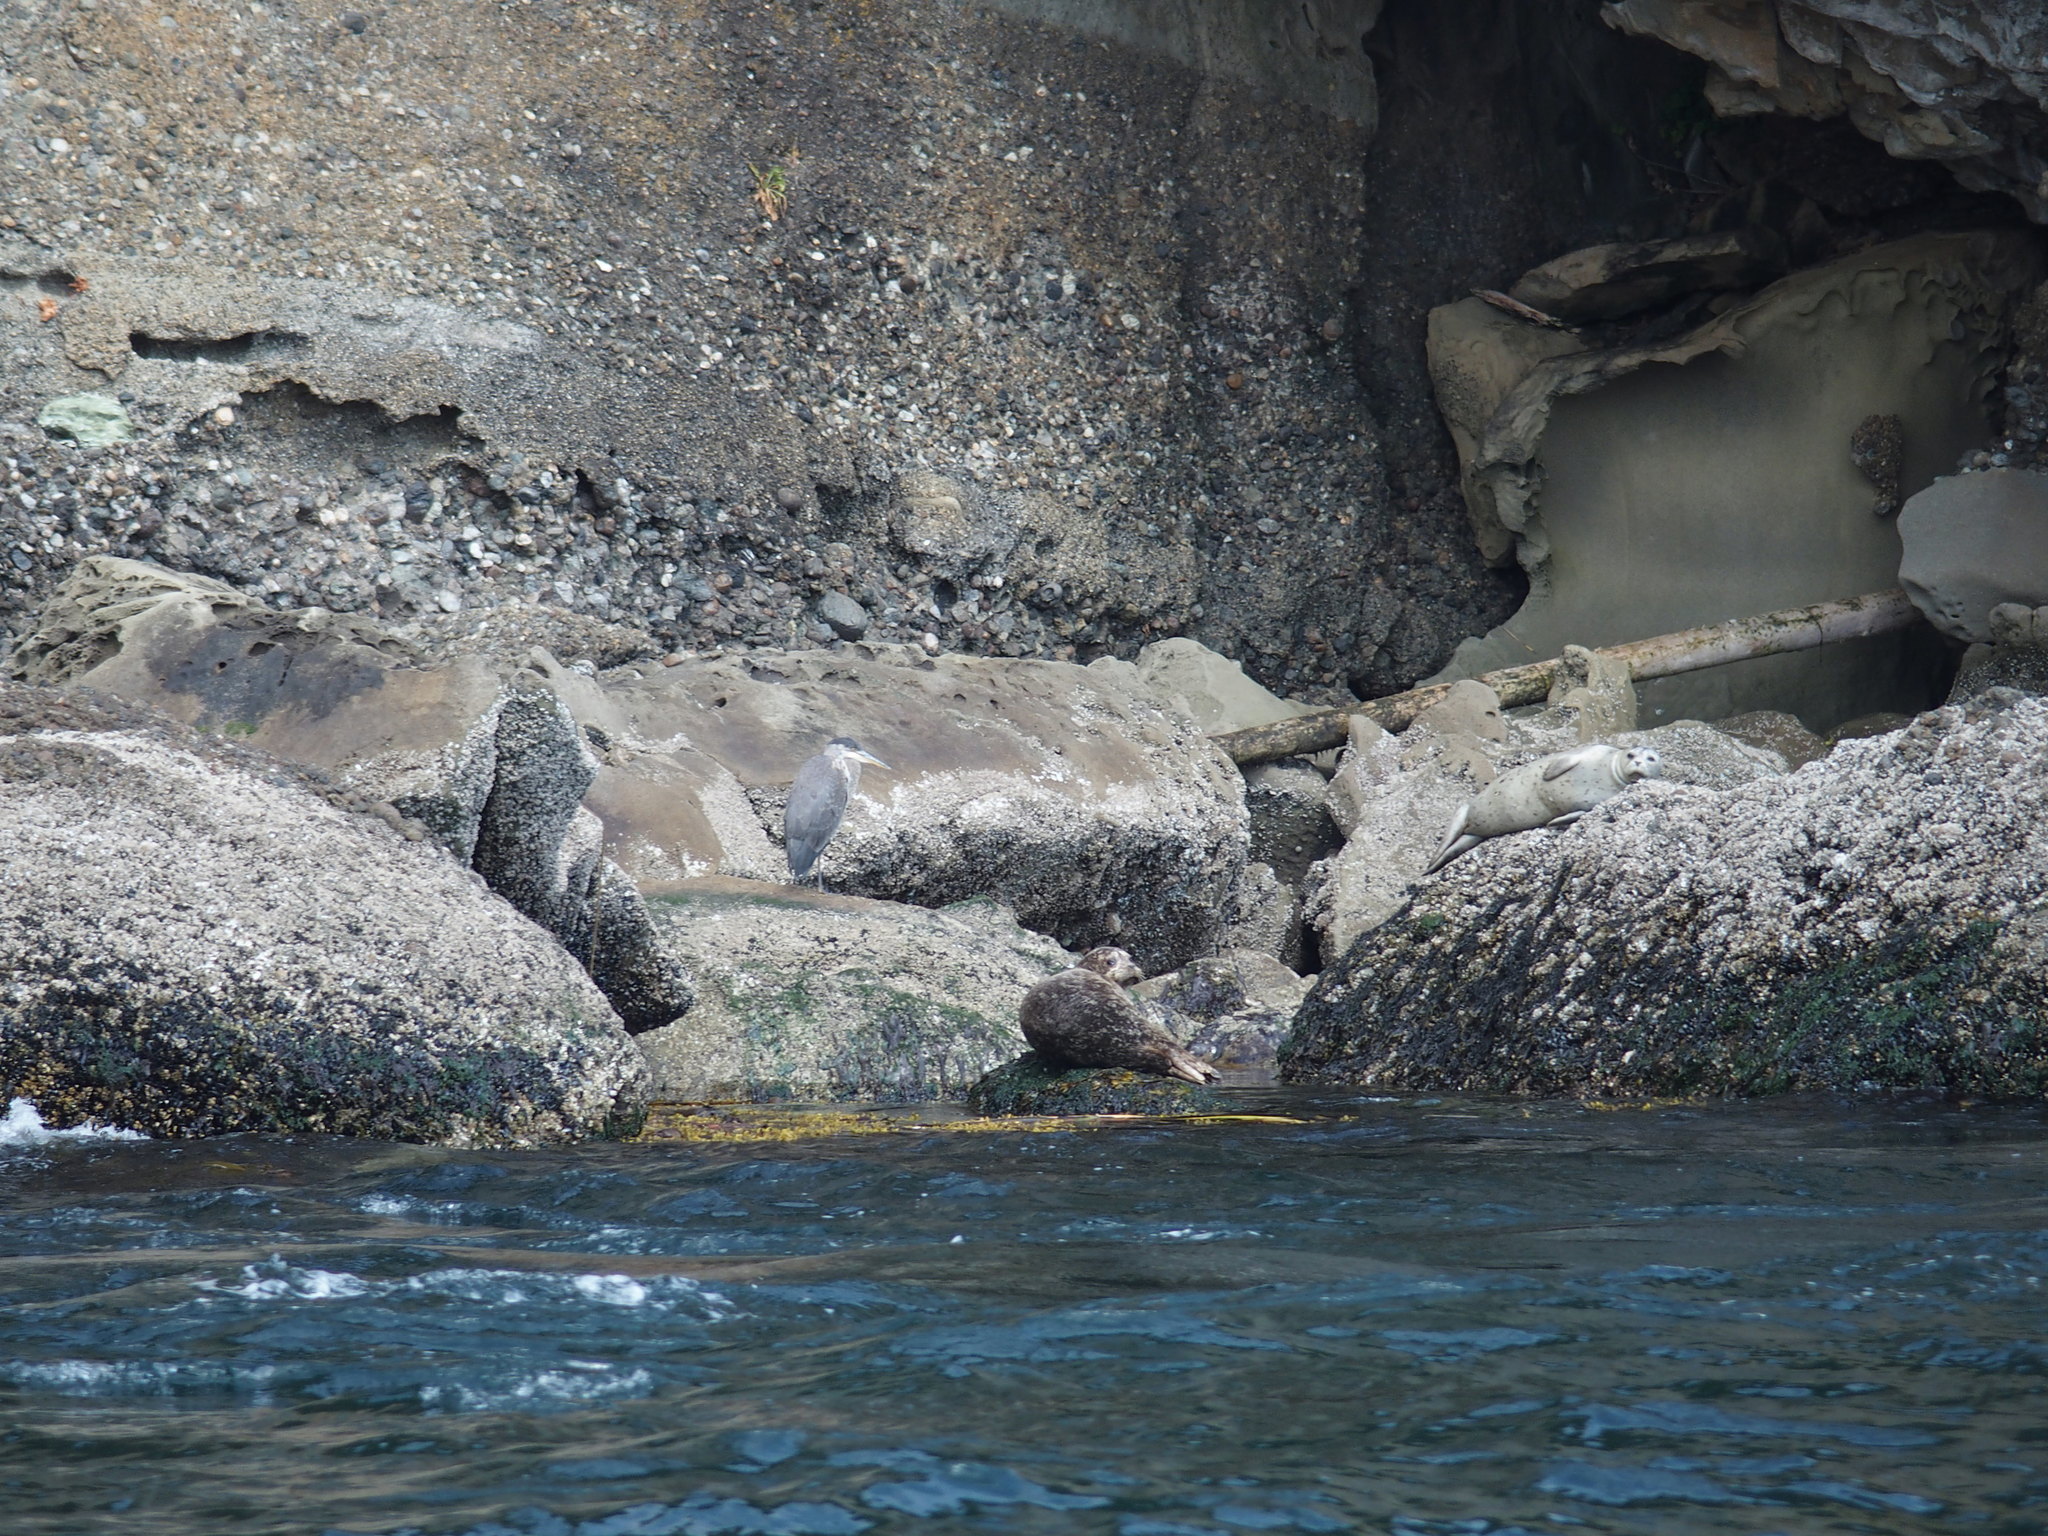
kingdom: Animalia
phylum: Chordata
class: Mammalia
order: Carnivora
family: Phocidae
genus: Phoca
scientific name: Phoca vitulina
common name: Harbor seal
